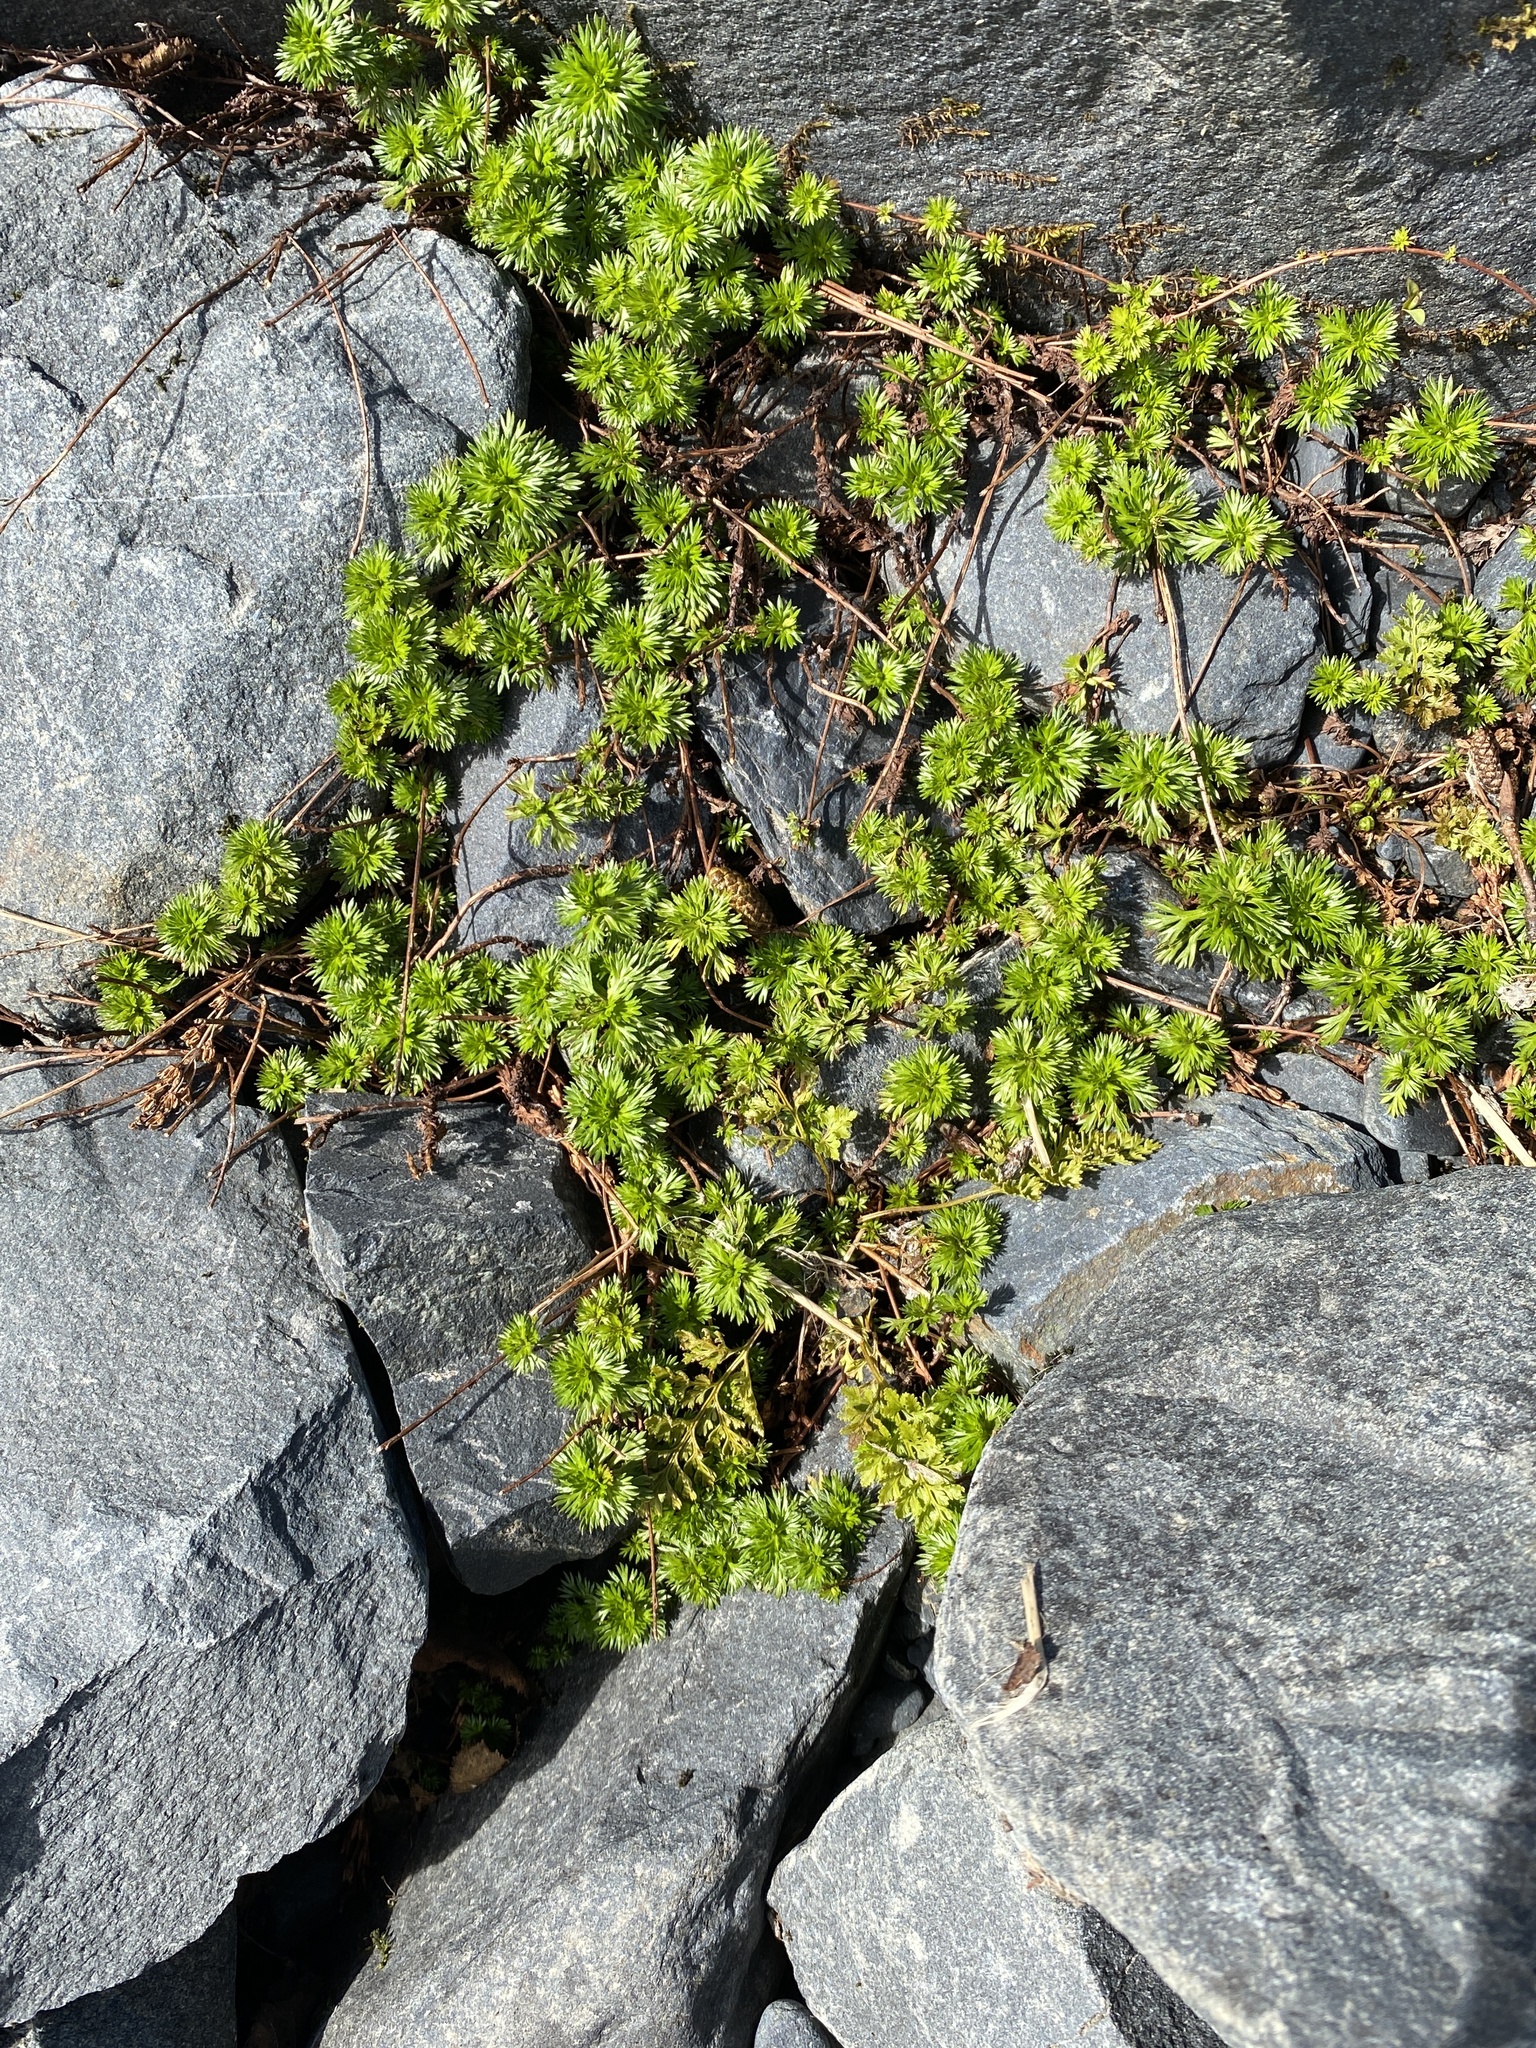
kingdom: Plantae
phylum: Tracheophyta
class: Magnoliopsida
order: Rosales
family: Rosaceae
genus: Luetkea
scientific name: Luetkea pectinata
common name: Partridgefoot
